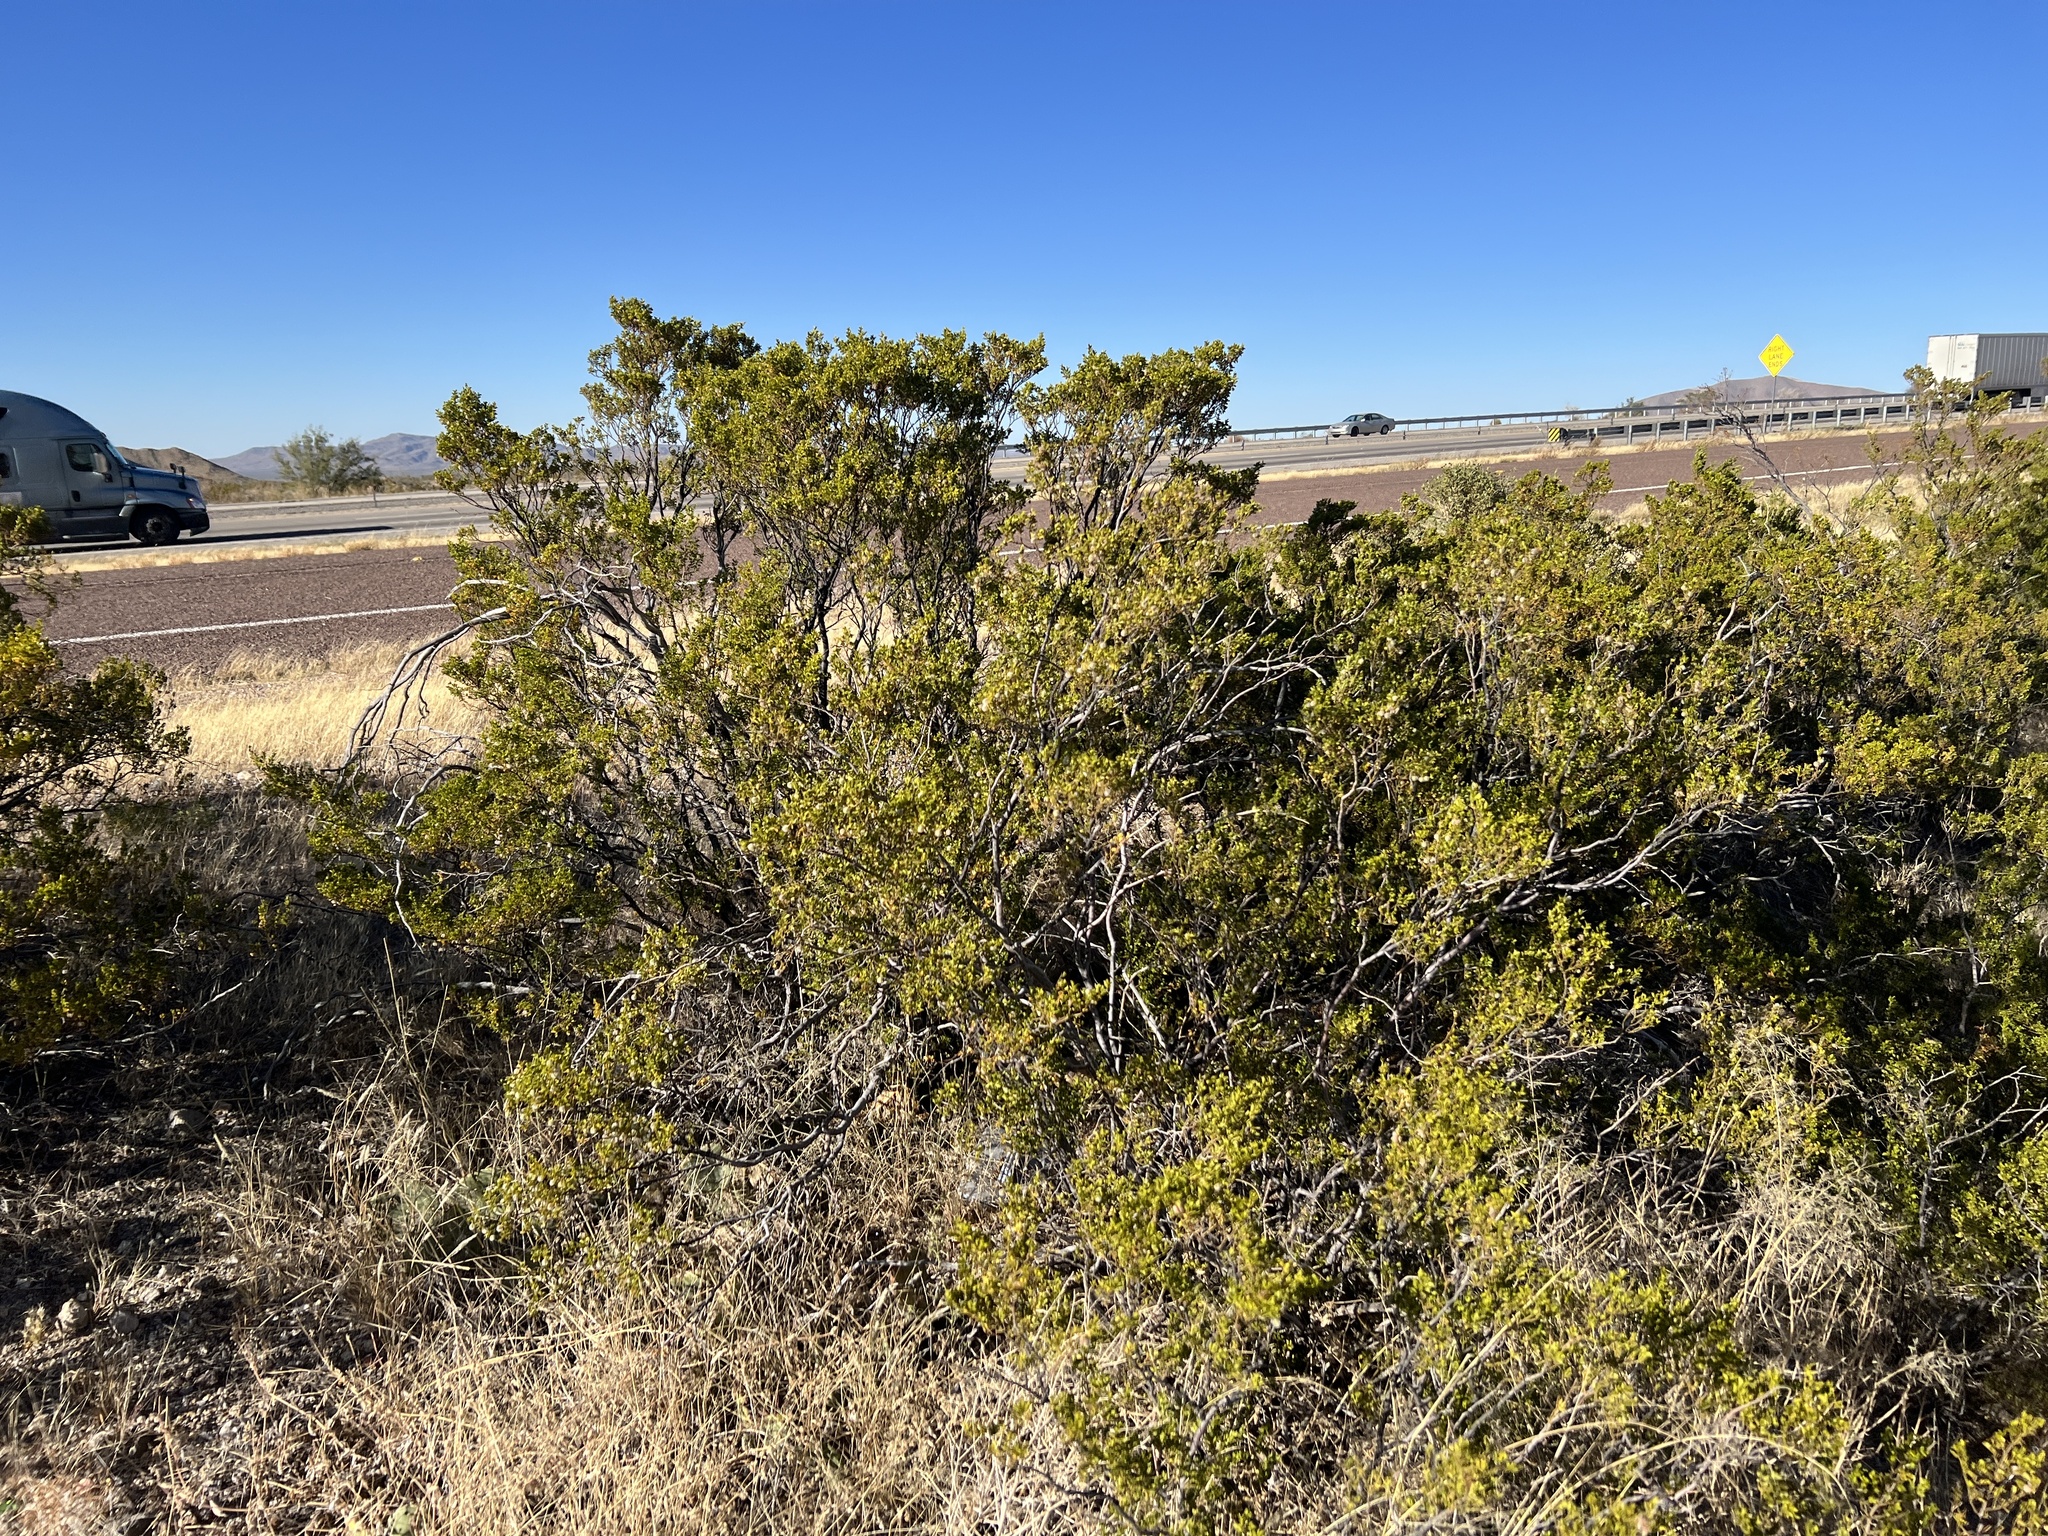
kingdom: Plantae
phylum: Tracheophyta
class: Magnoliopsida
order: Zygophyllales
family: Zygophyllaceae
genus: Larrea
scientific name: Larrea tridentata
